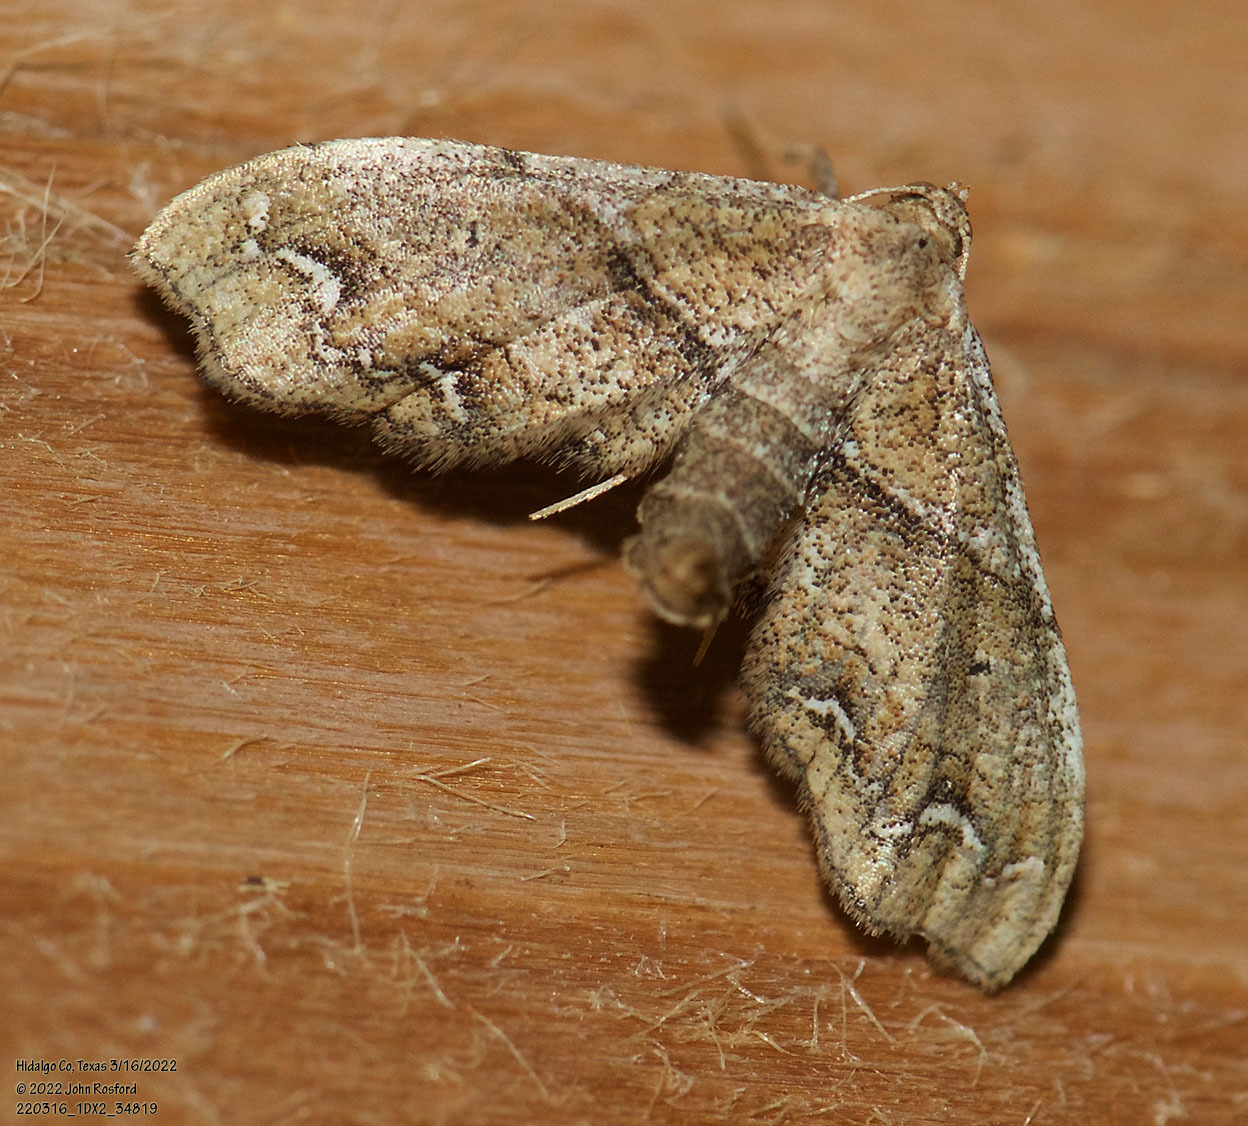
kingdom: Animalia
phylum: Arthropoda
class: Insecta
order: Lepidoptera
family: Geometridae
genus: Odontoptila
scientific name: Odontoptila obrimo
